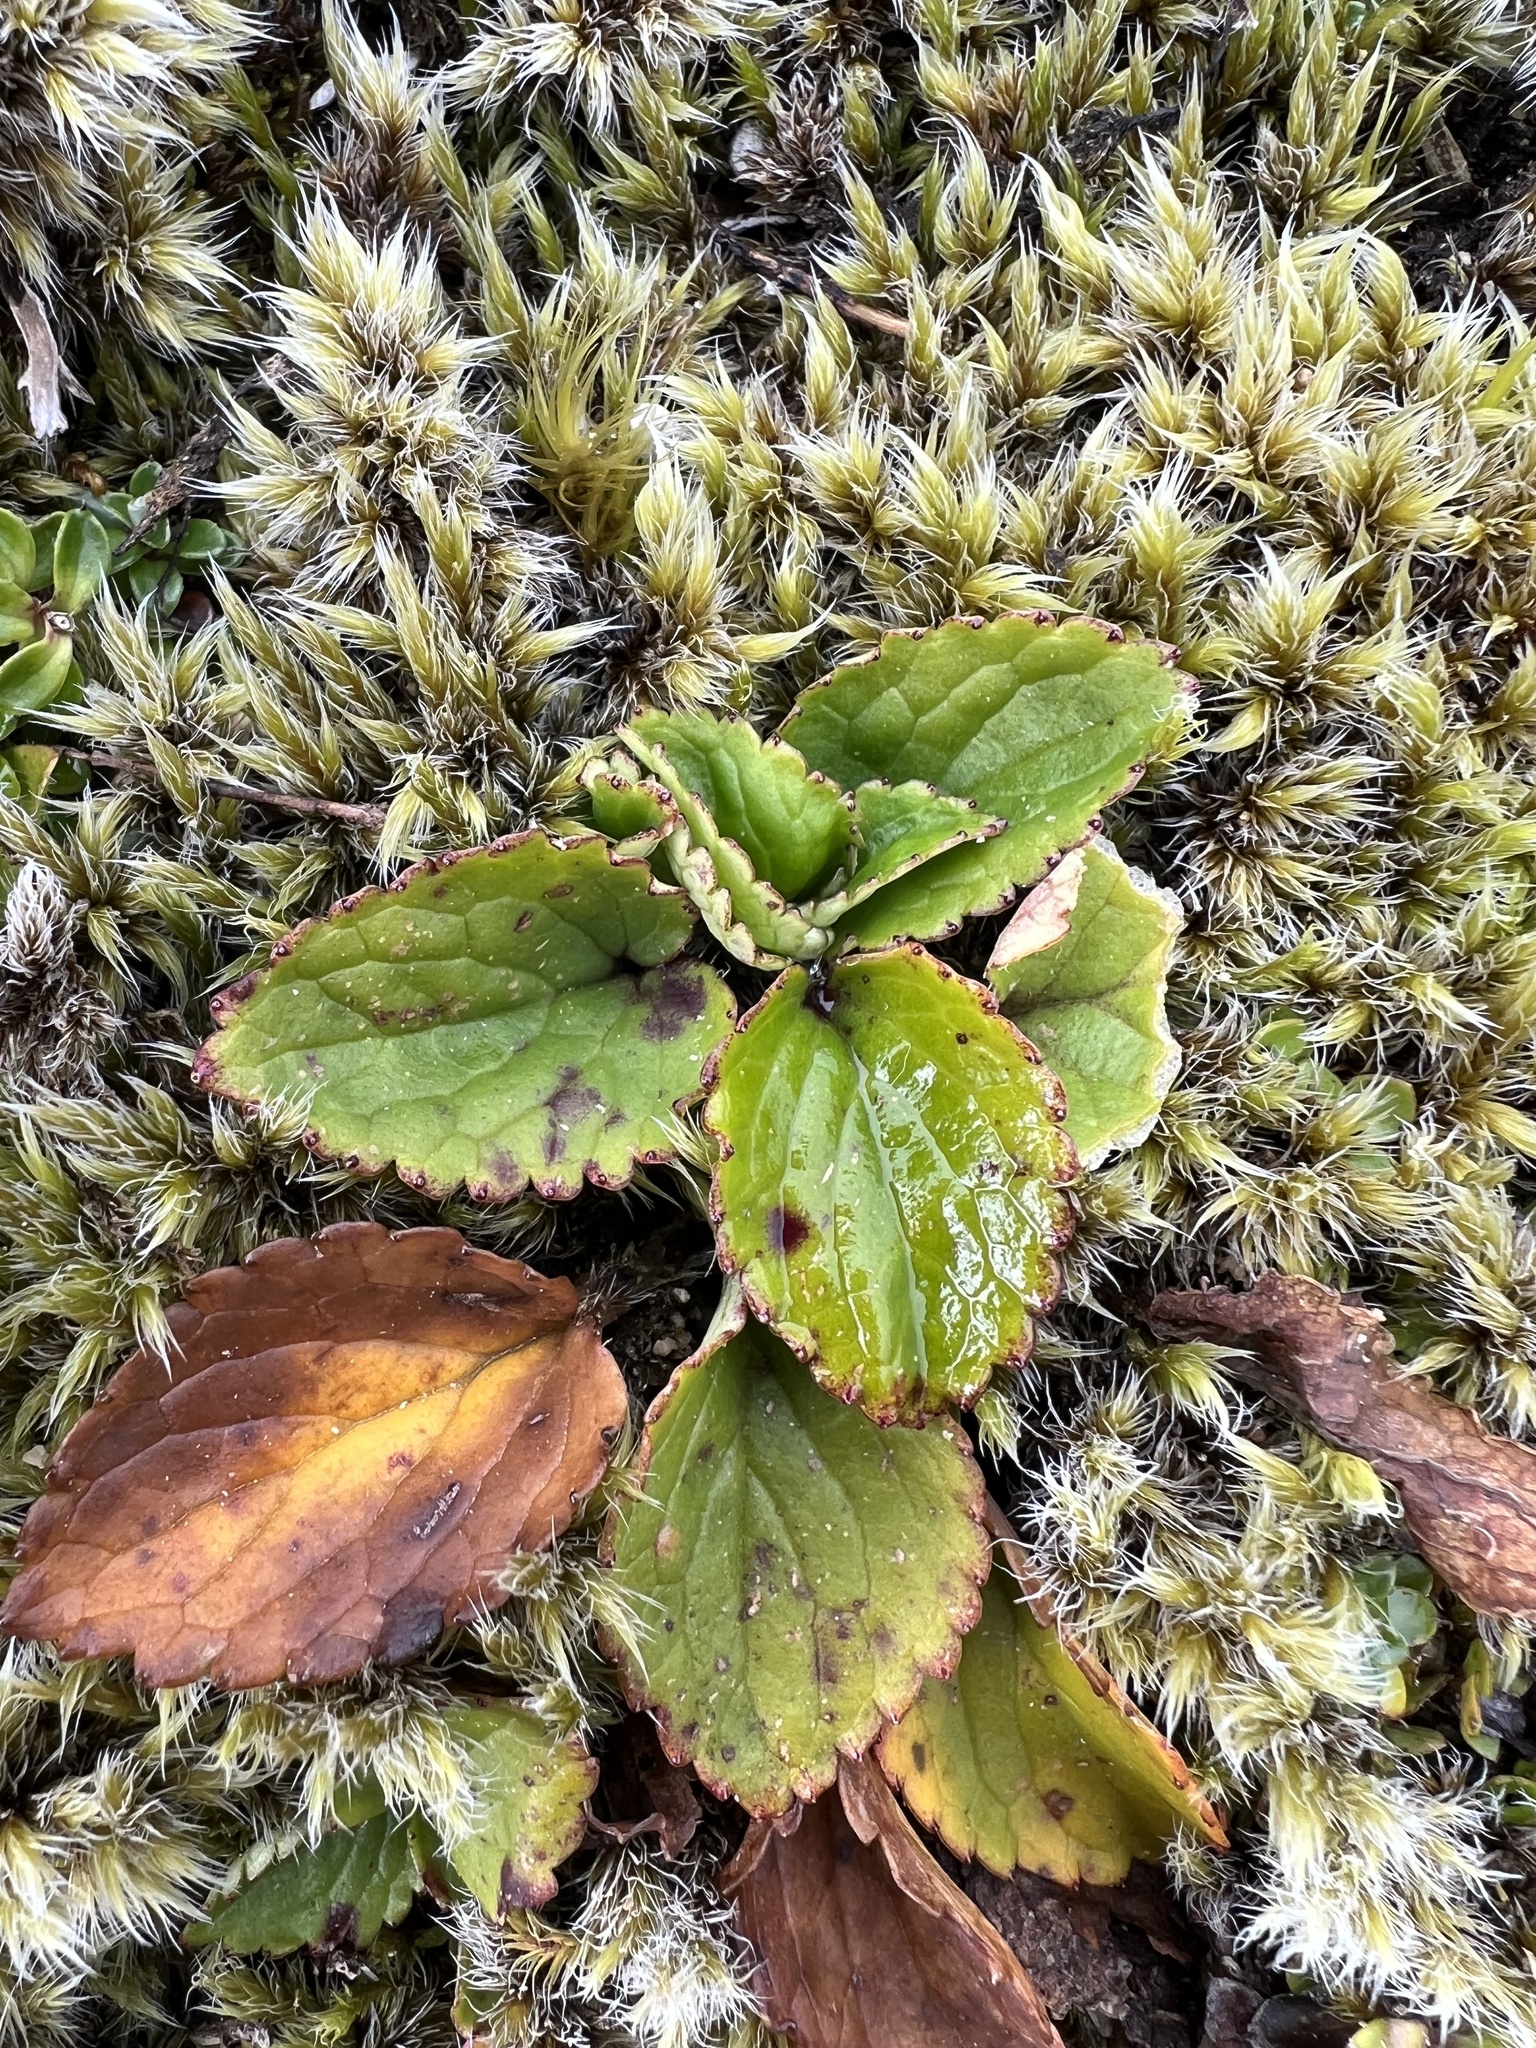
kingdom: Plantae
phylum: Tracheophyta
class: Magnoliopsida
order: Lamiales
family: Plantaginaceae
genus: Ourisia
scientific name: Ourisia macrophylla
